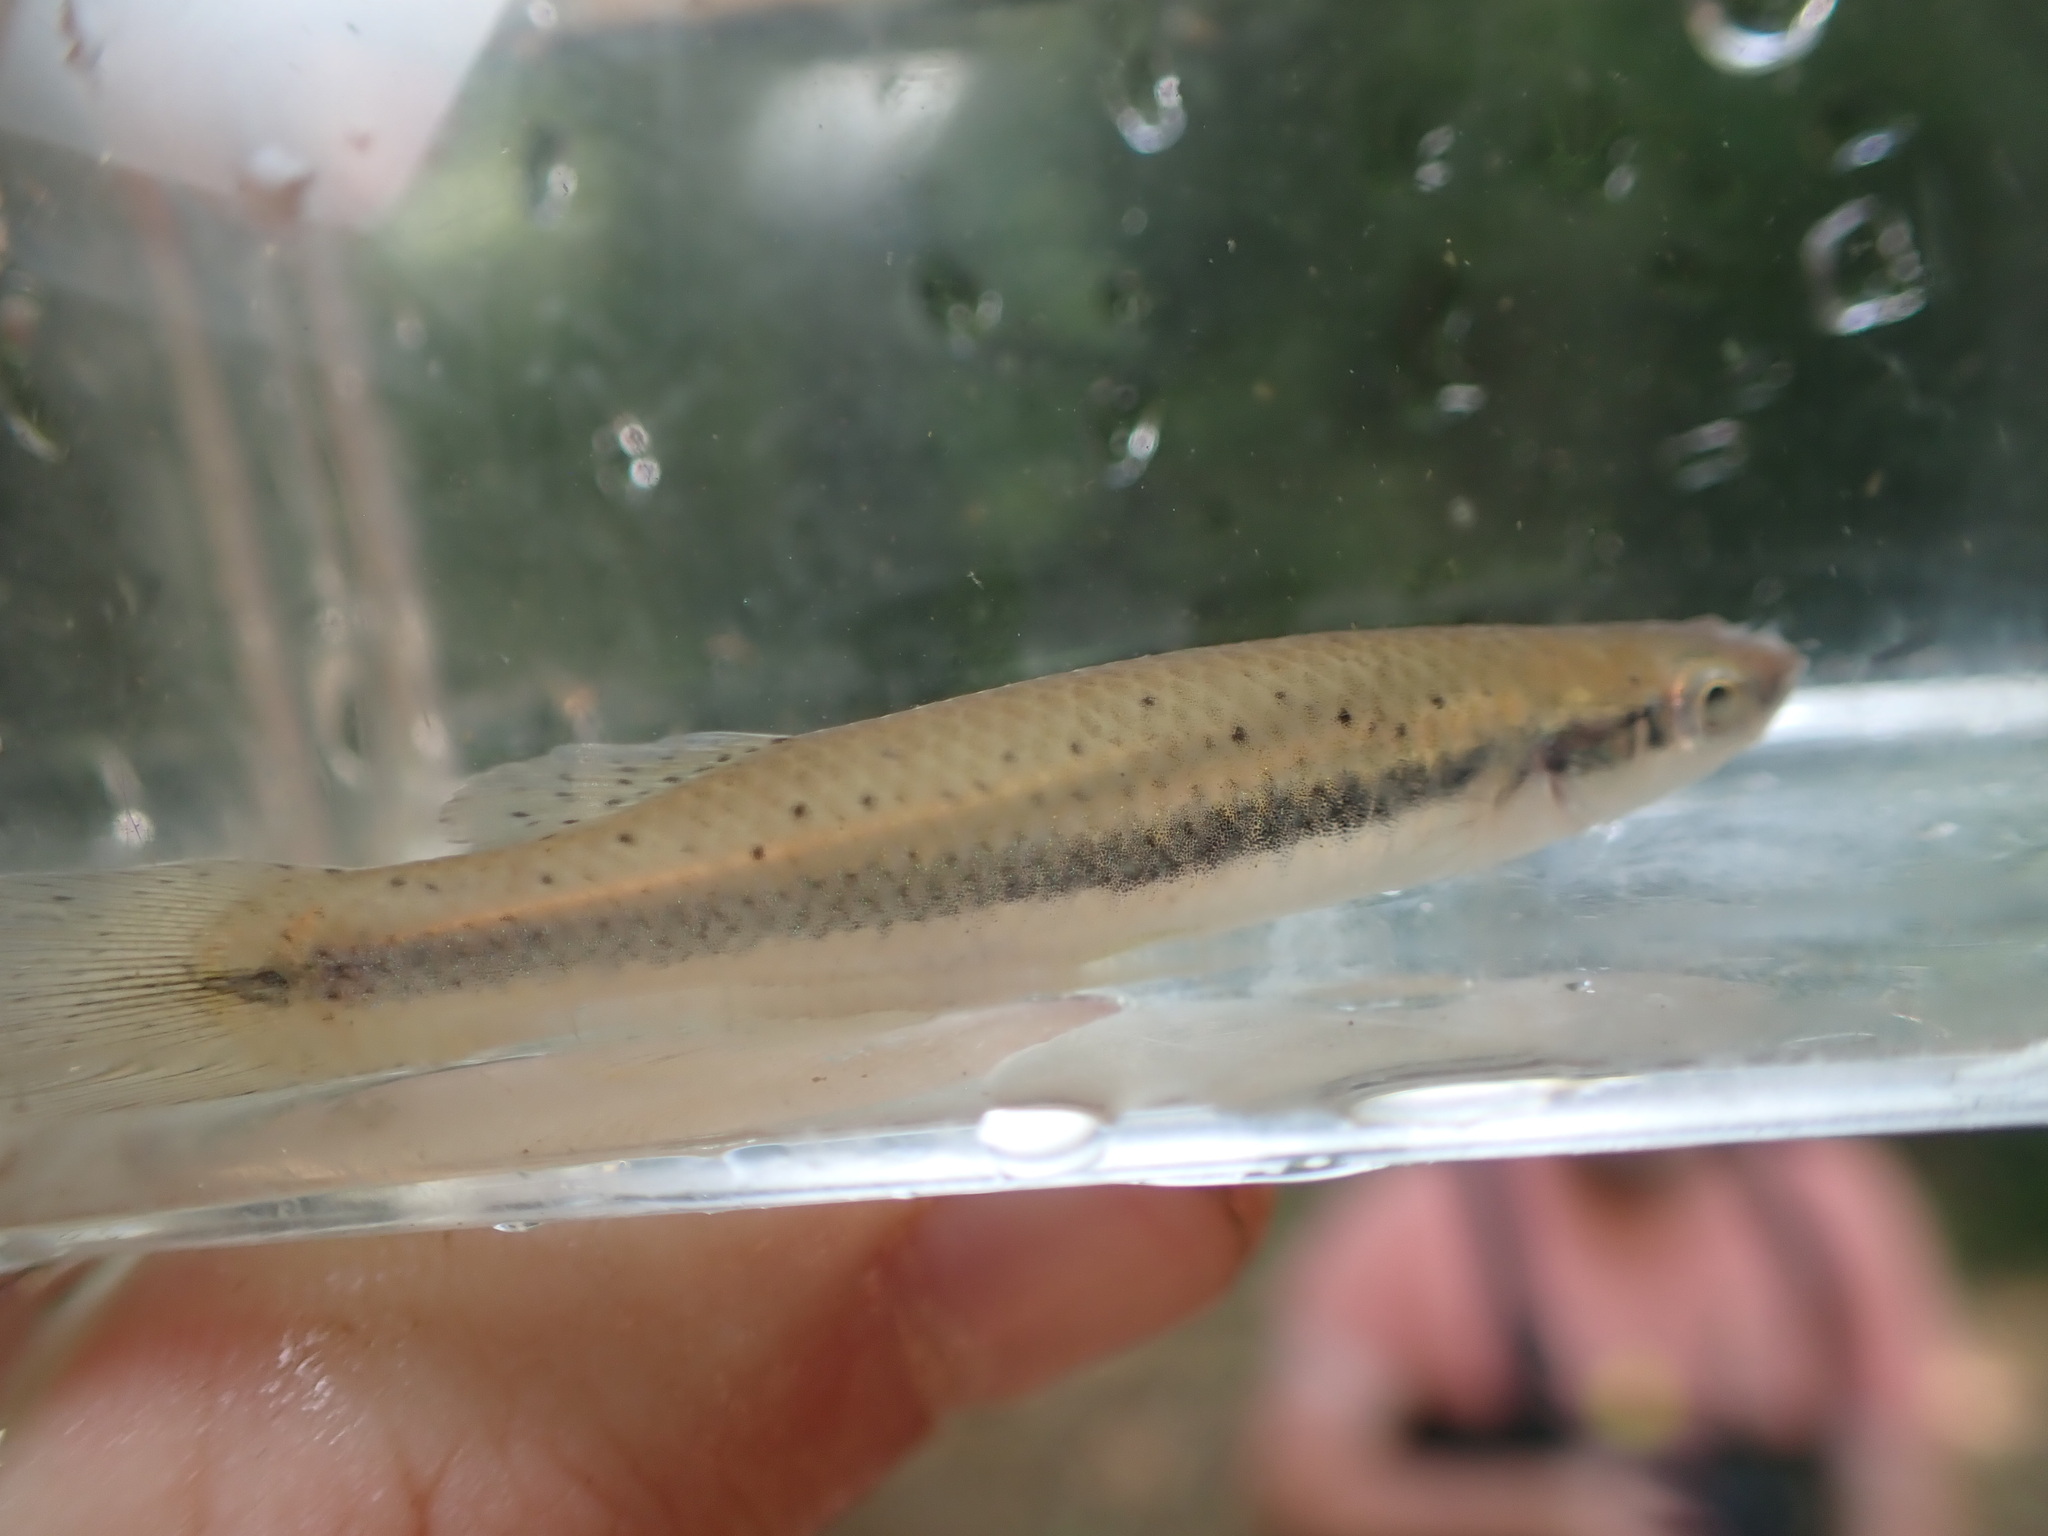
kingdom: Animalia
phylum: Chordata
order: Cyprinodontiformes
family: Fundulidae
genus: Fundulus
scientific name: Fundulus olivaceus
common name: Blackspotted topminnow
